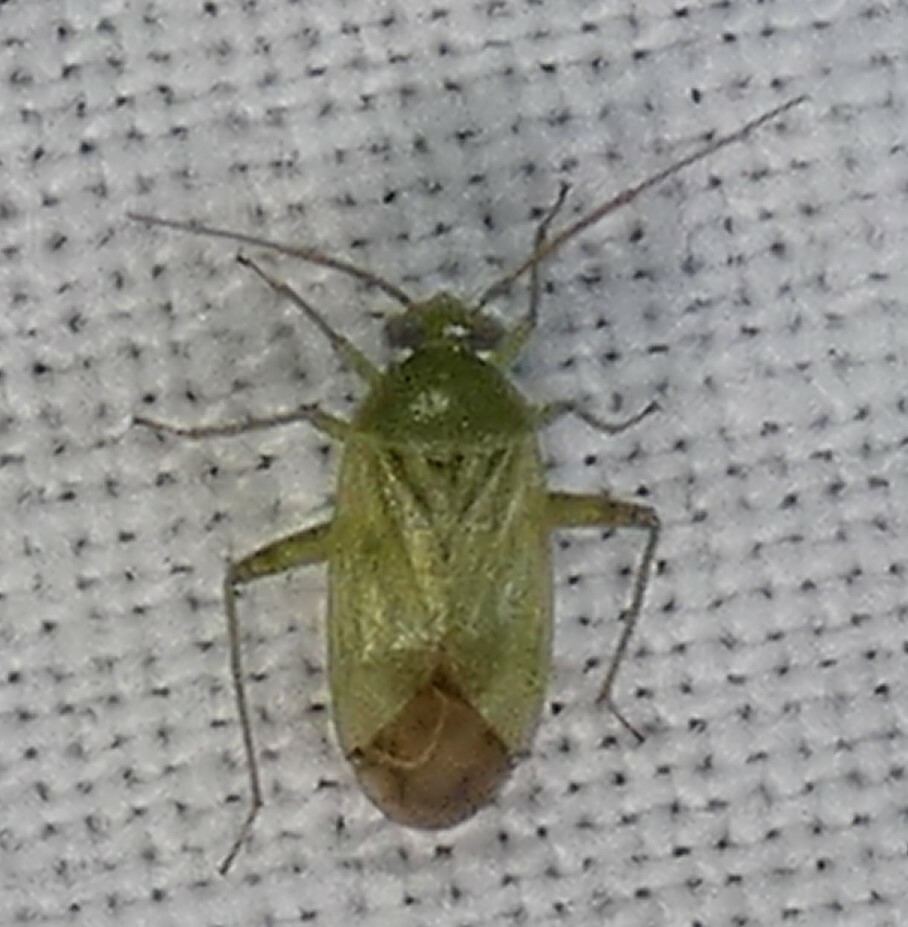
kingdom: Animalia
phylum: Arthropoda
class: Insecta
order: Hemiptera
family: Miridae
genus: Taylorilygus
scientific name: Taylorilygus apicalis
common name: Plant bug
